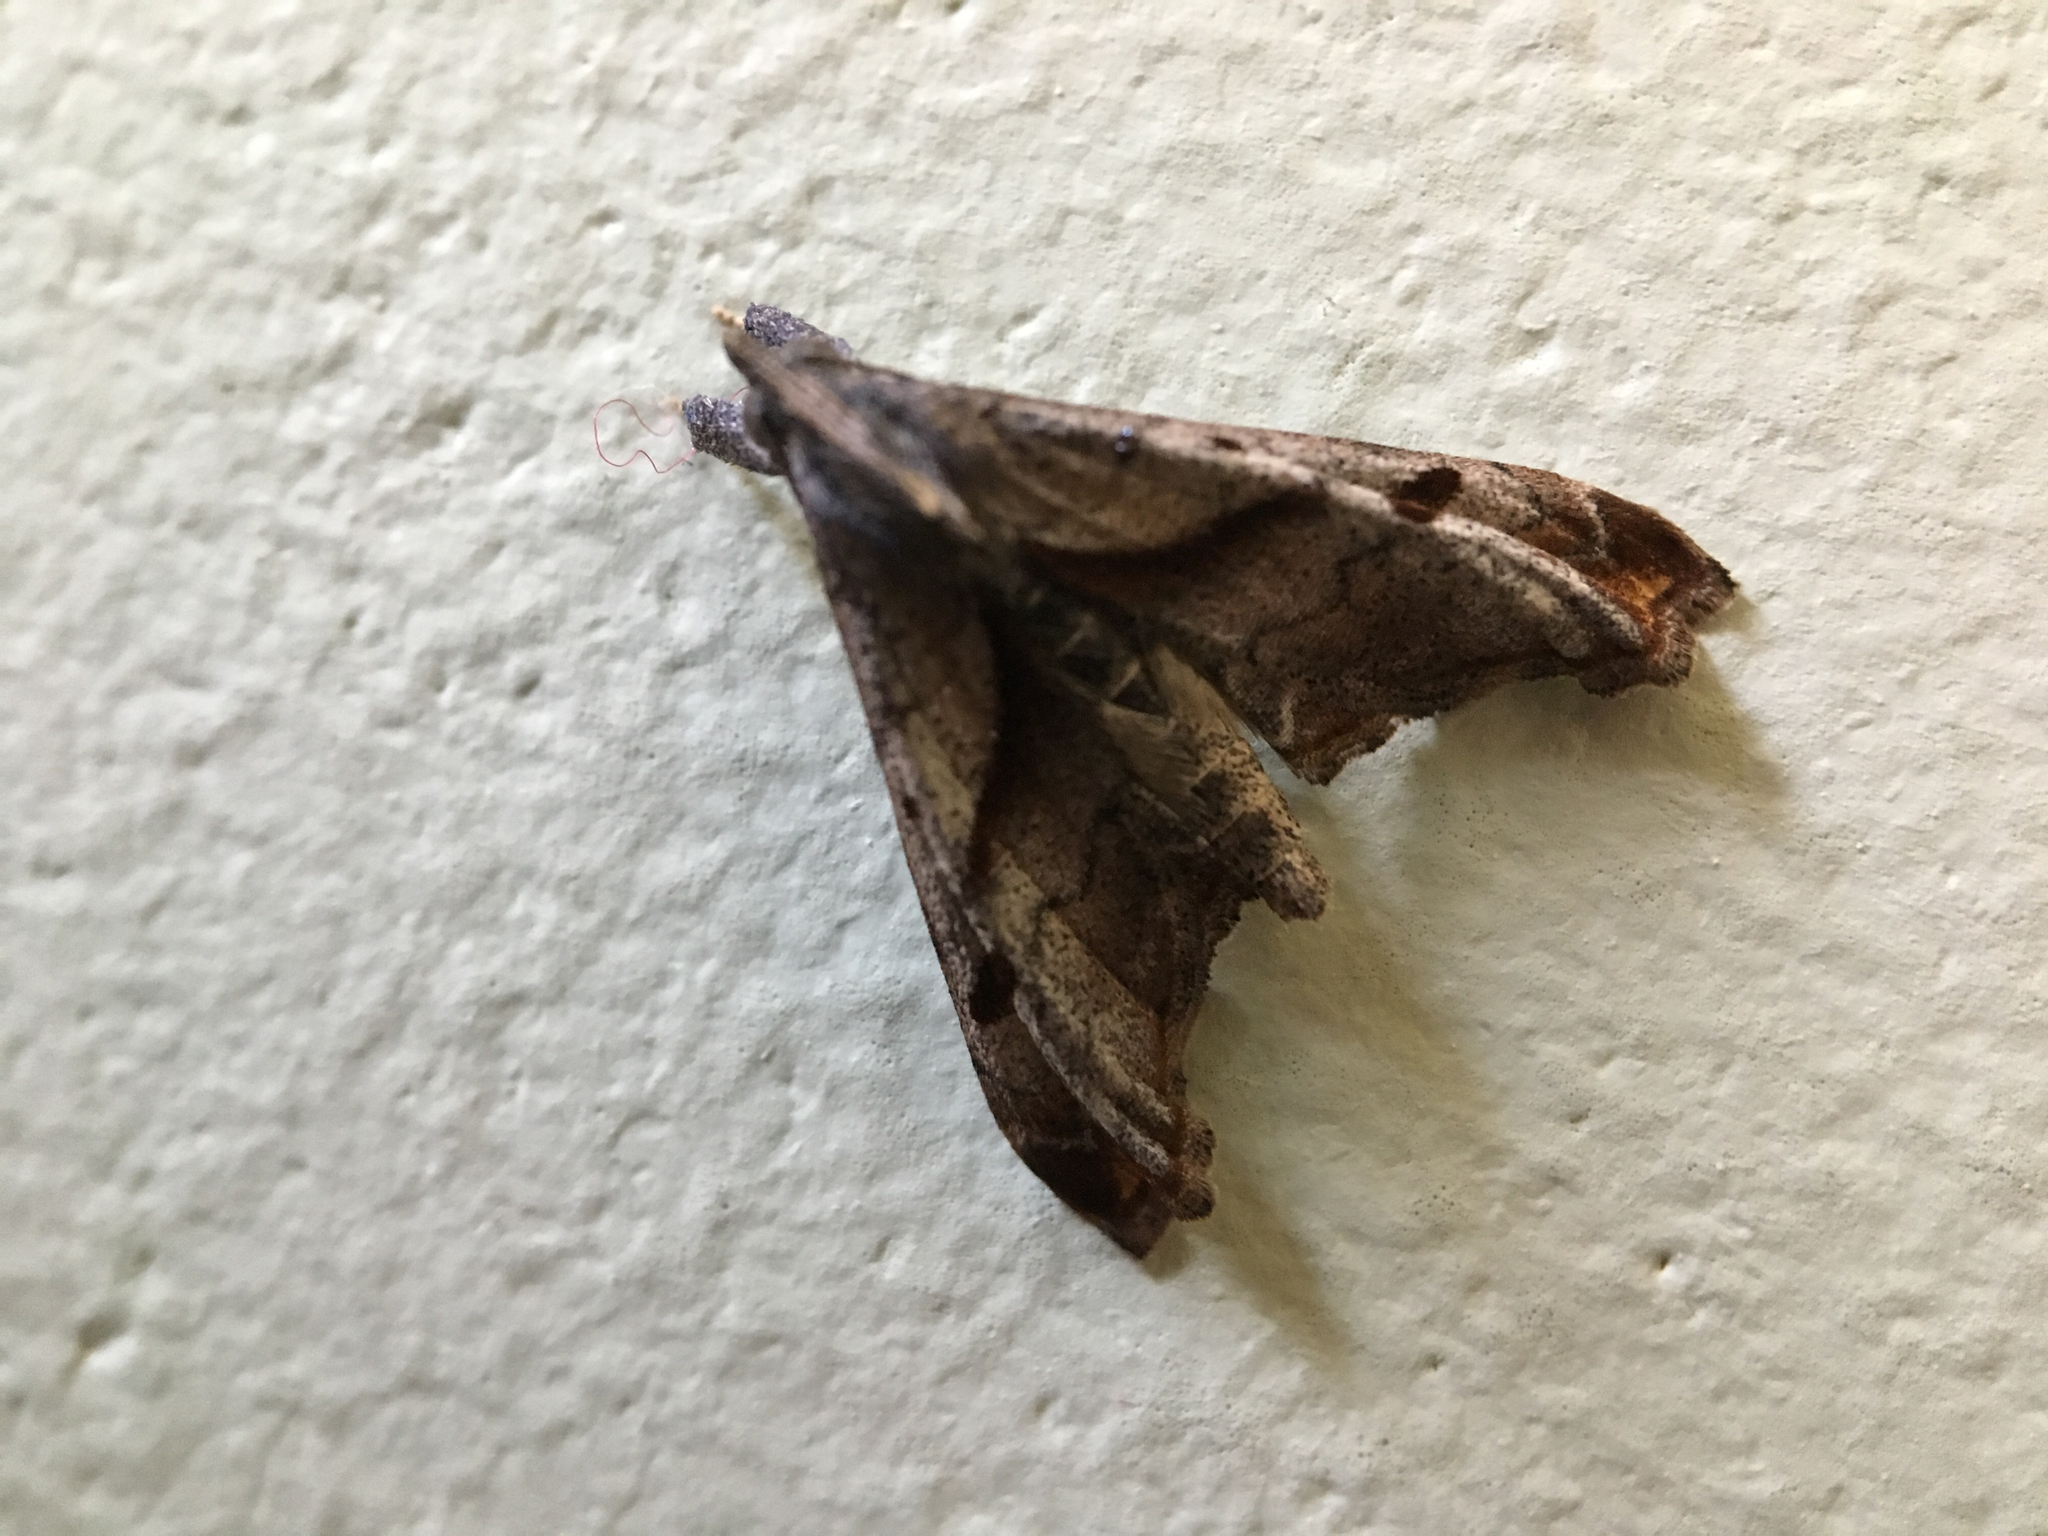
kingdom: Animalia
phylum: Arthropoda
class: Insecta
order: Lepidoptera
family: Erebidae
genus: Palthis
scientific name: Palthis angulalis
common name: Dark-spotted palthis moth
